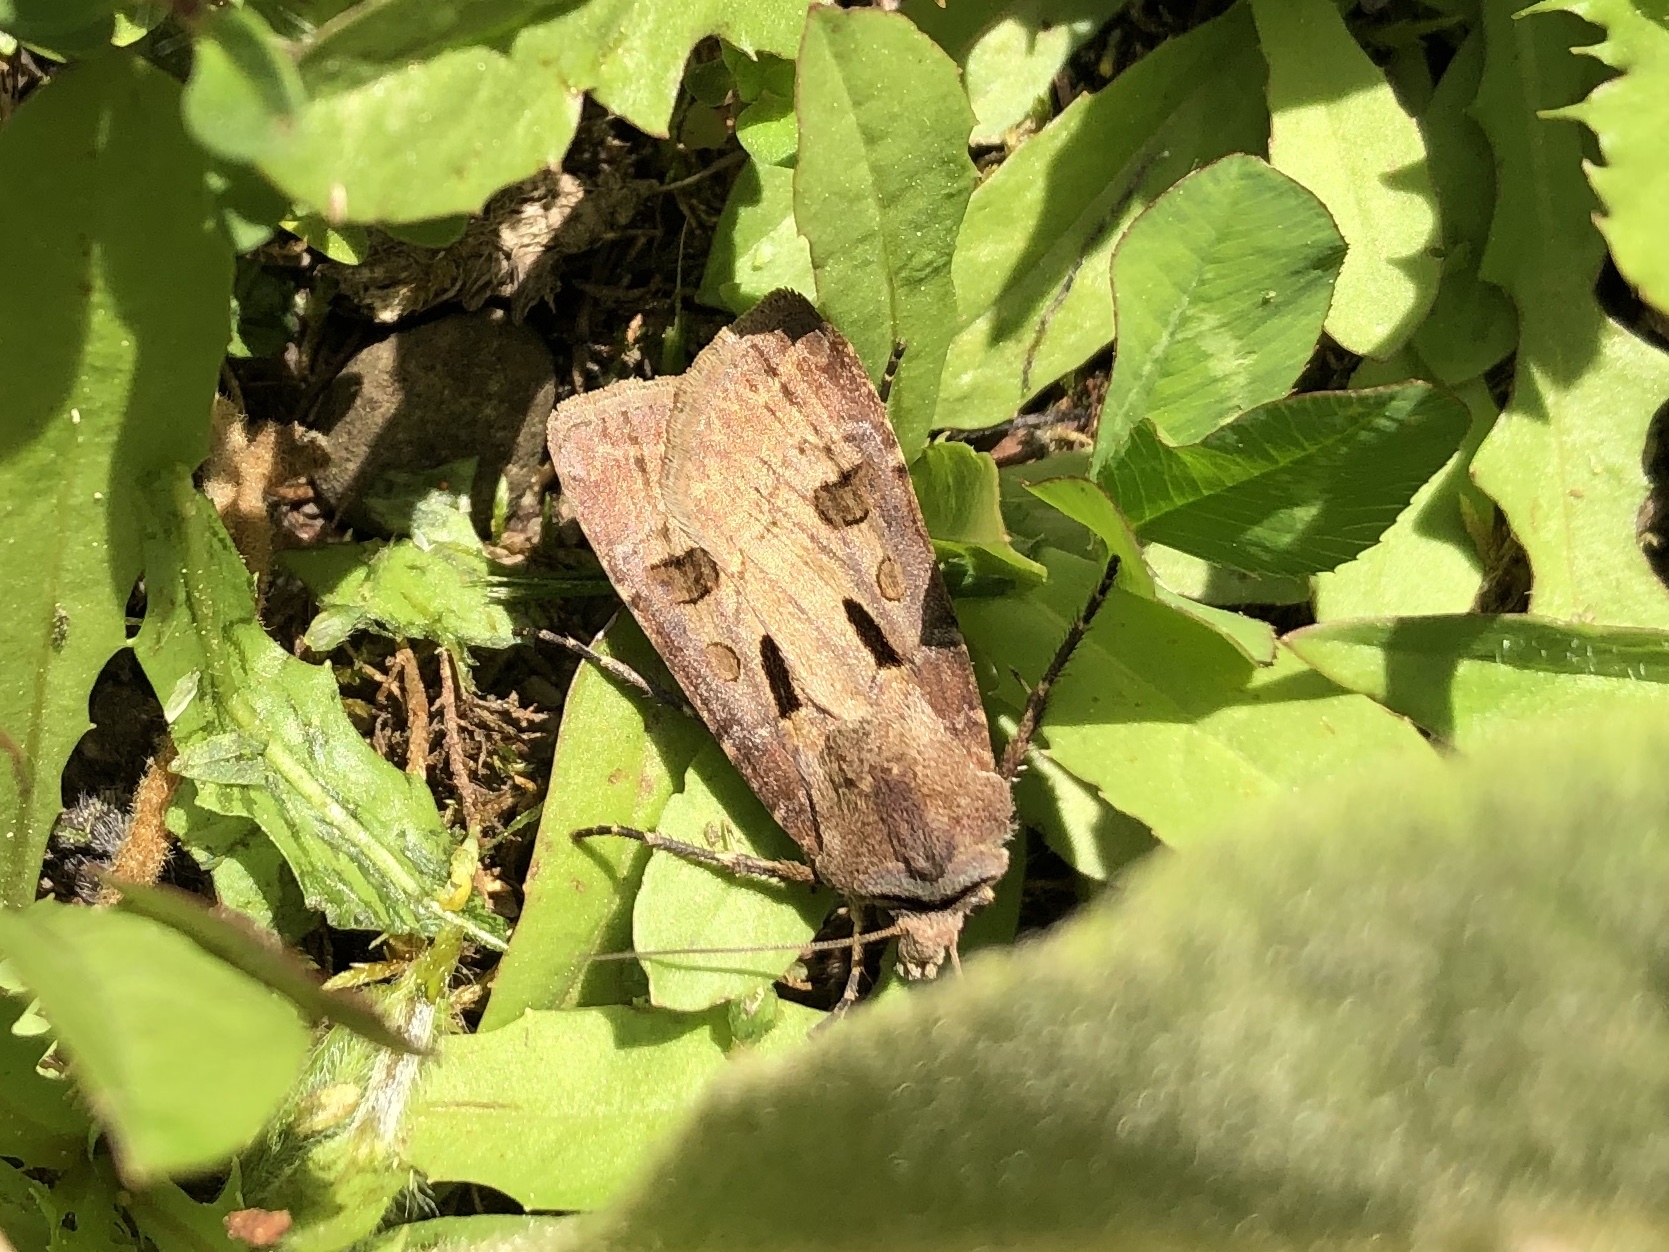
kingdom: Animalia
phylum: Arthropoda
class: Insecta
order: Lepidoptera
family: Noctuidae
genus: Agrotis
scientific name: Agrotis exclamationis
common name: Heart and dart
